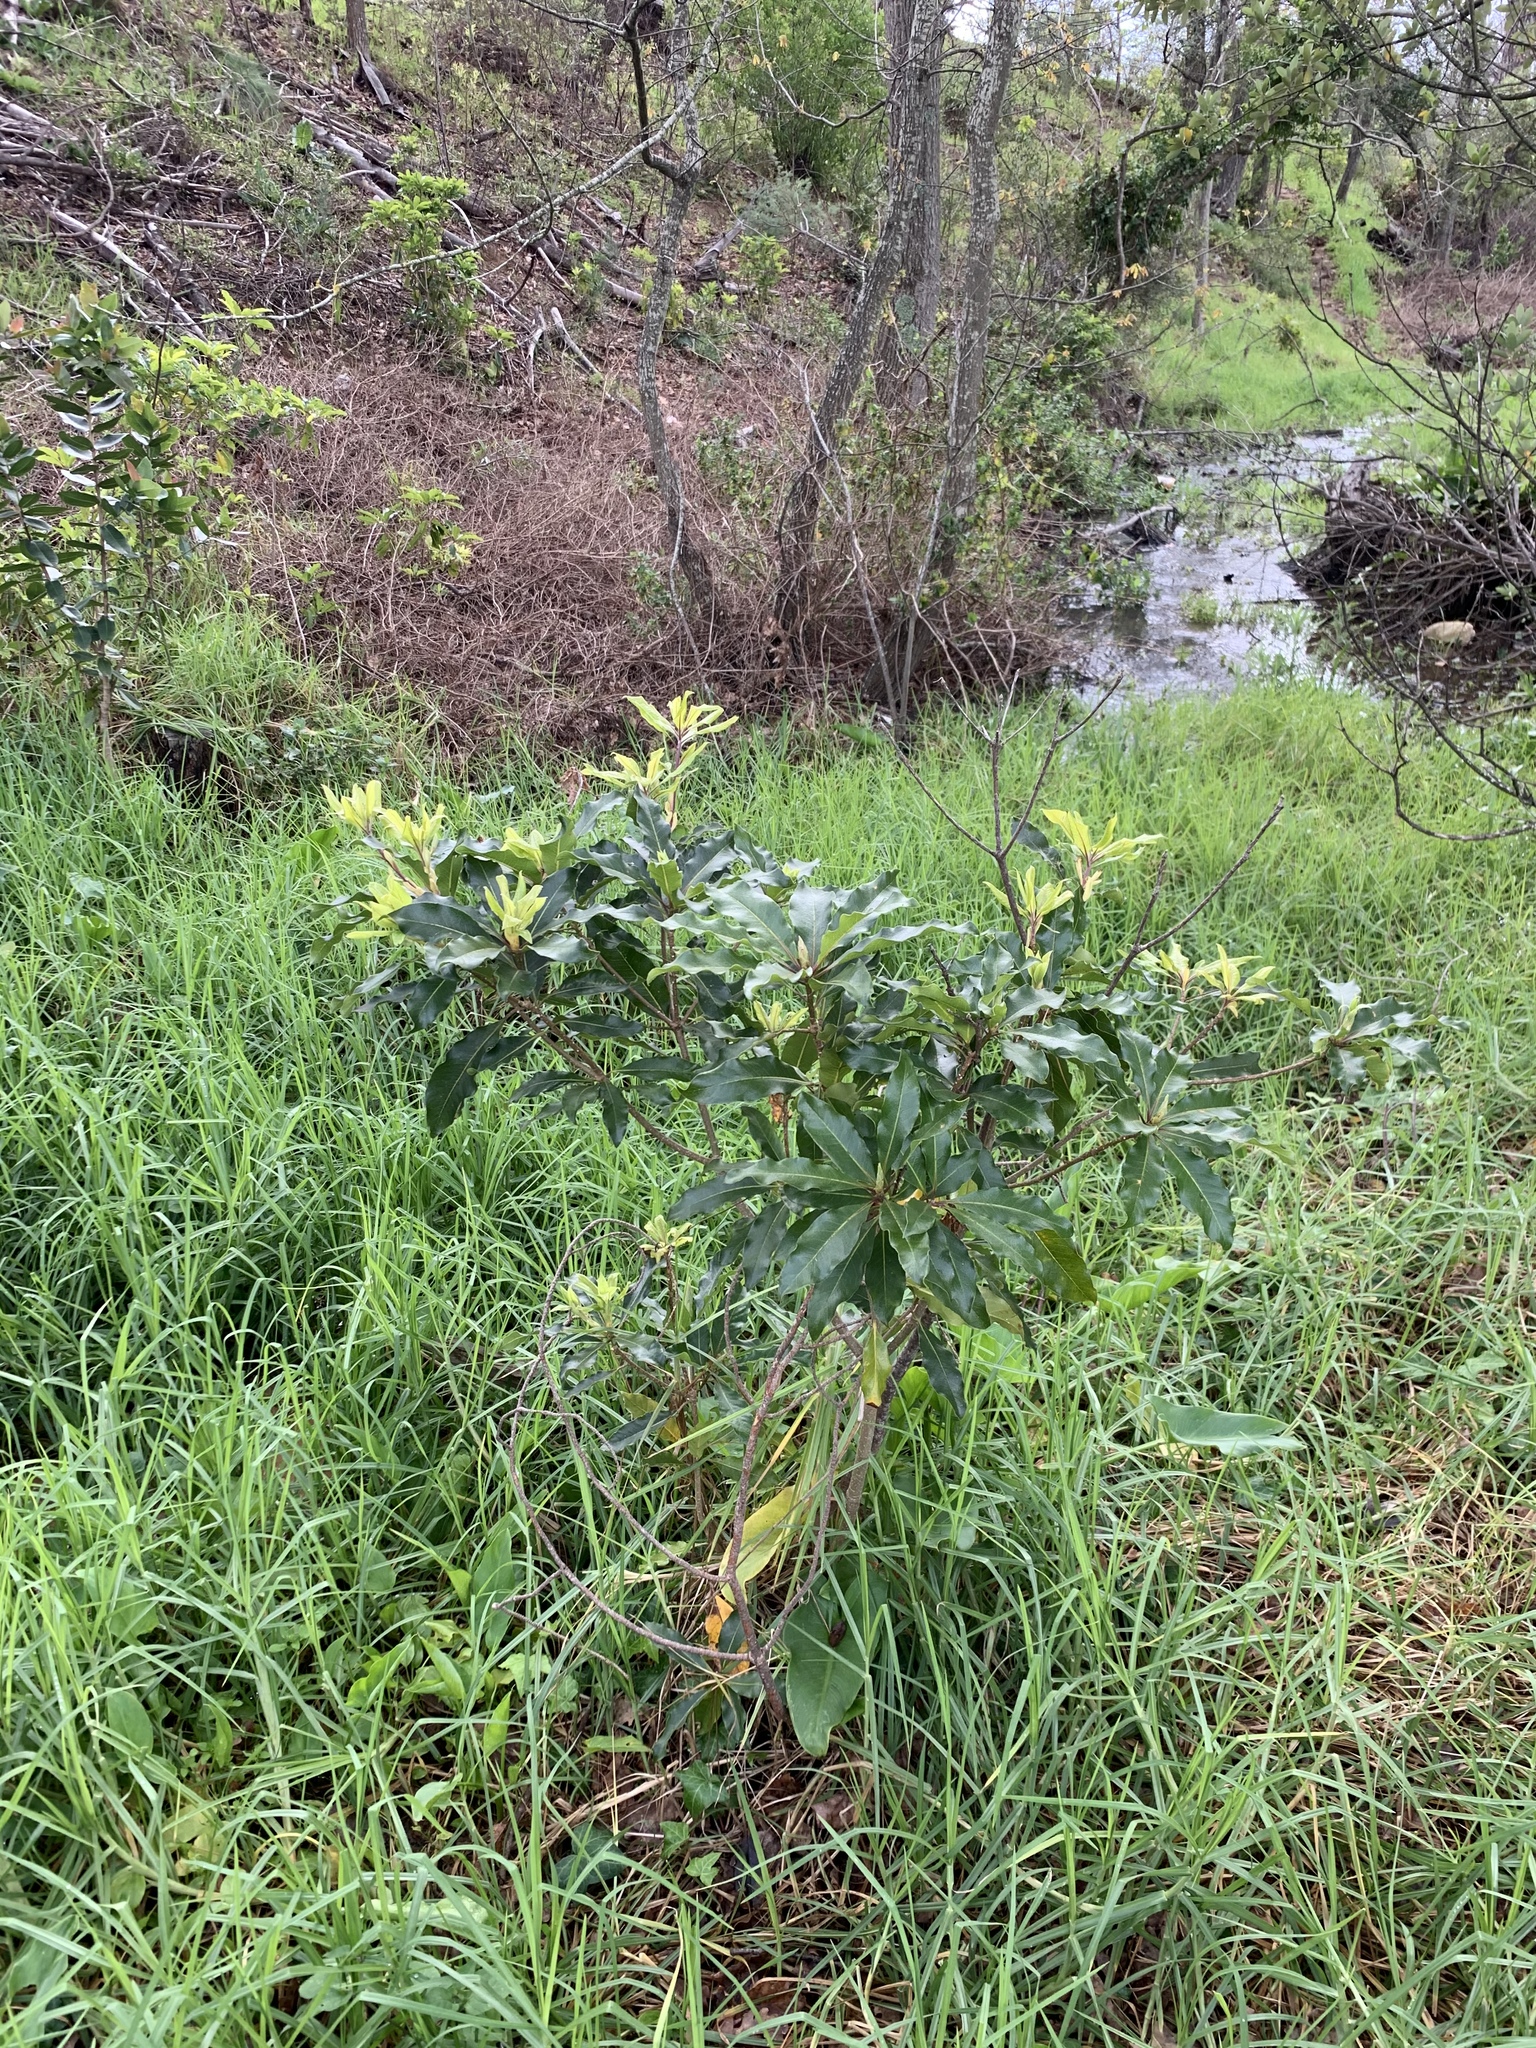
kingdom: Plantae
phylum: Tracheophyta
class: Magnoliopsida
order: Apiales
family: Pittosporaceae
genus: Pittosporum
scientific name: Pittosporum undulatum
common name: Australian cheesewood
